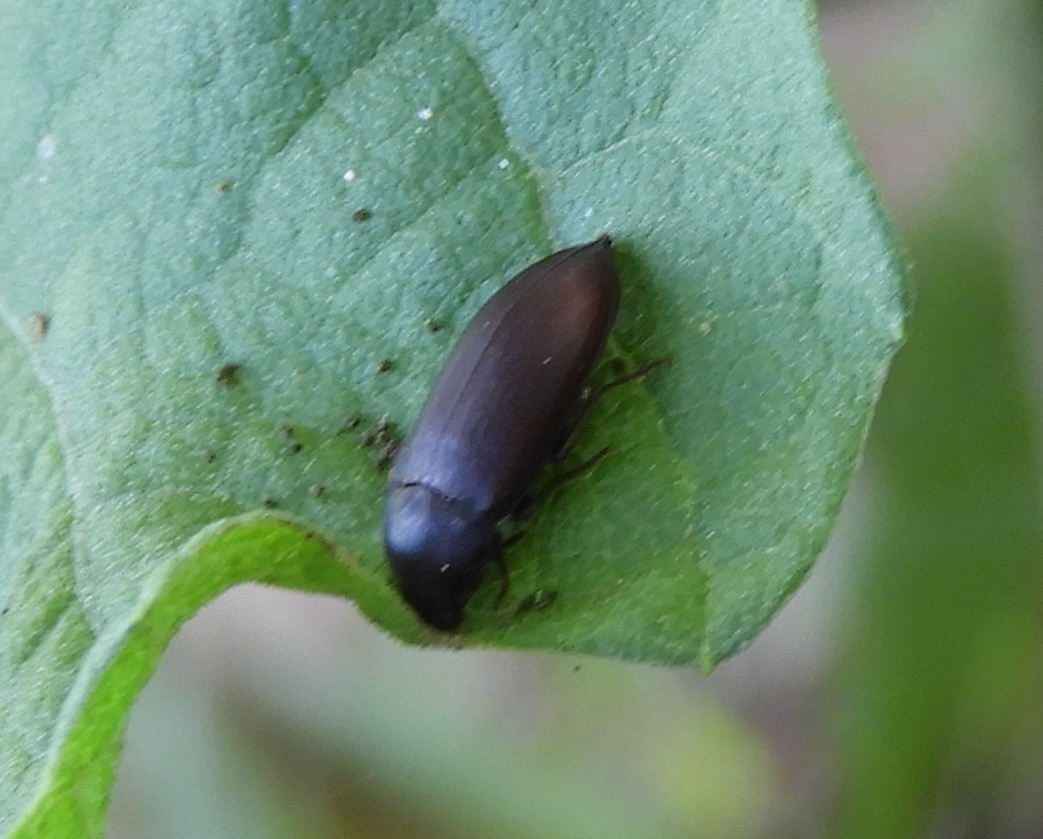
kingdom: Animalia
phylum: Arthropoda
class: Insecta
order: Coleoptera
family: Tenebrionidae
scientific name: Tenebrionidae
